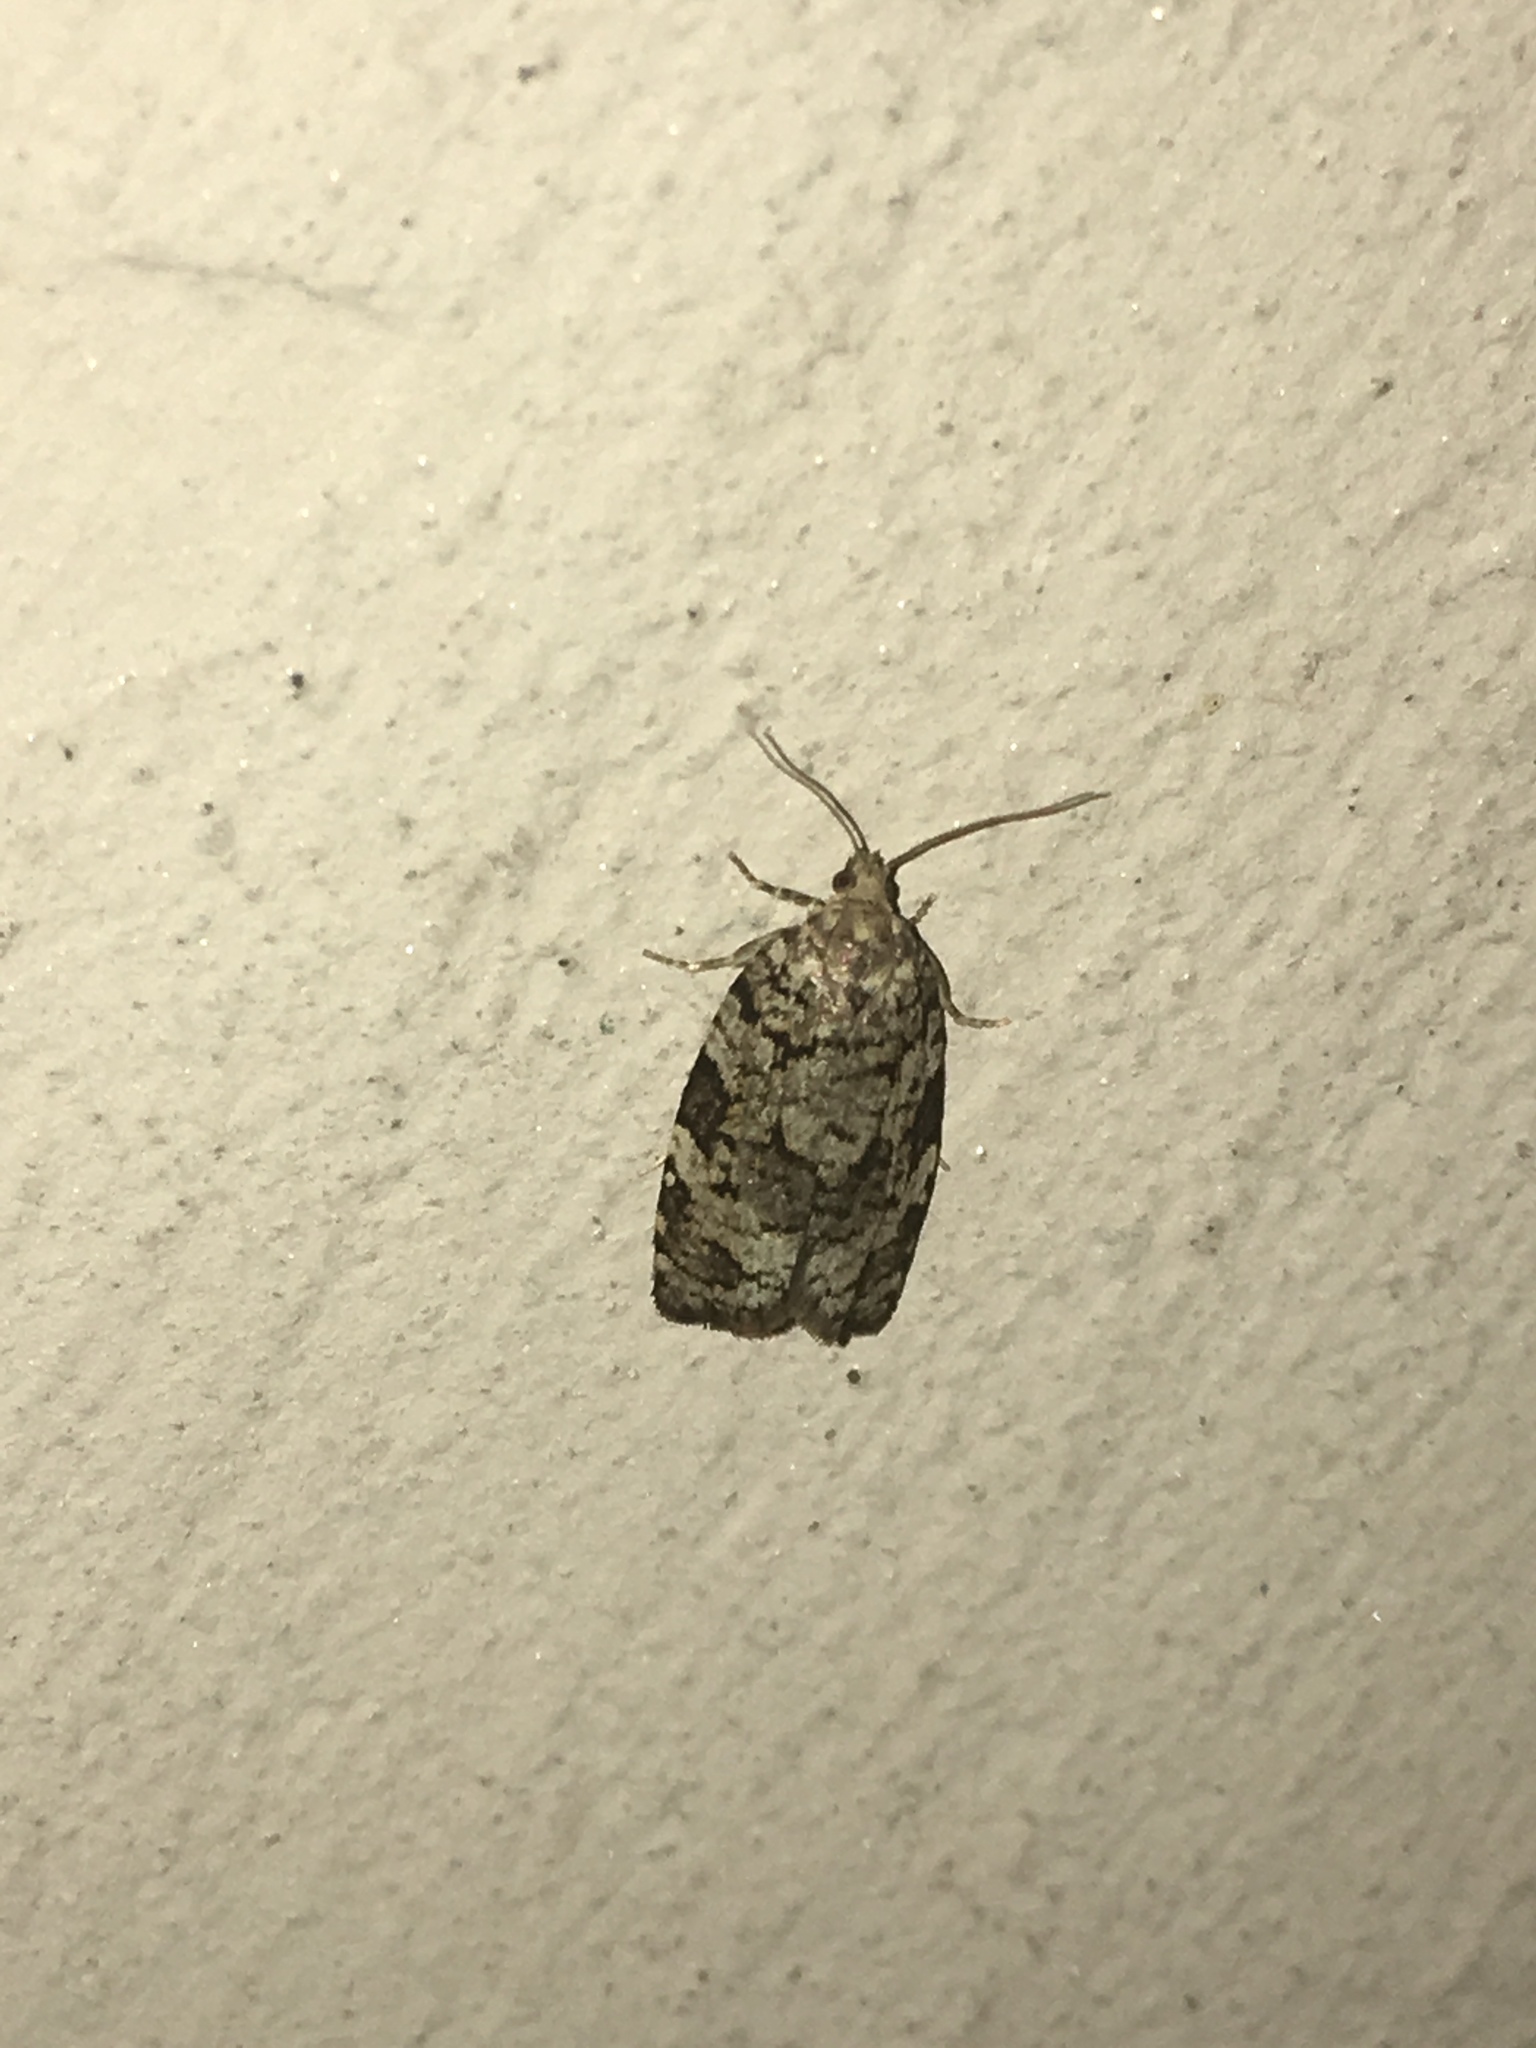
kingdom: Animalia
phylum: Arthropoda
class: Insecta
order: Lepidoptera
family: Tortricidae
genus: Dichelia
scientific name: Dichelia histrionana
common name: Tortricid moth
